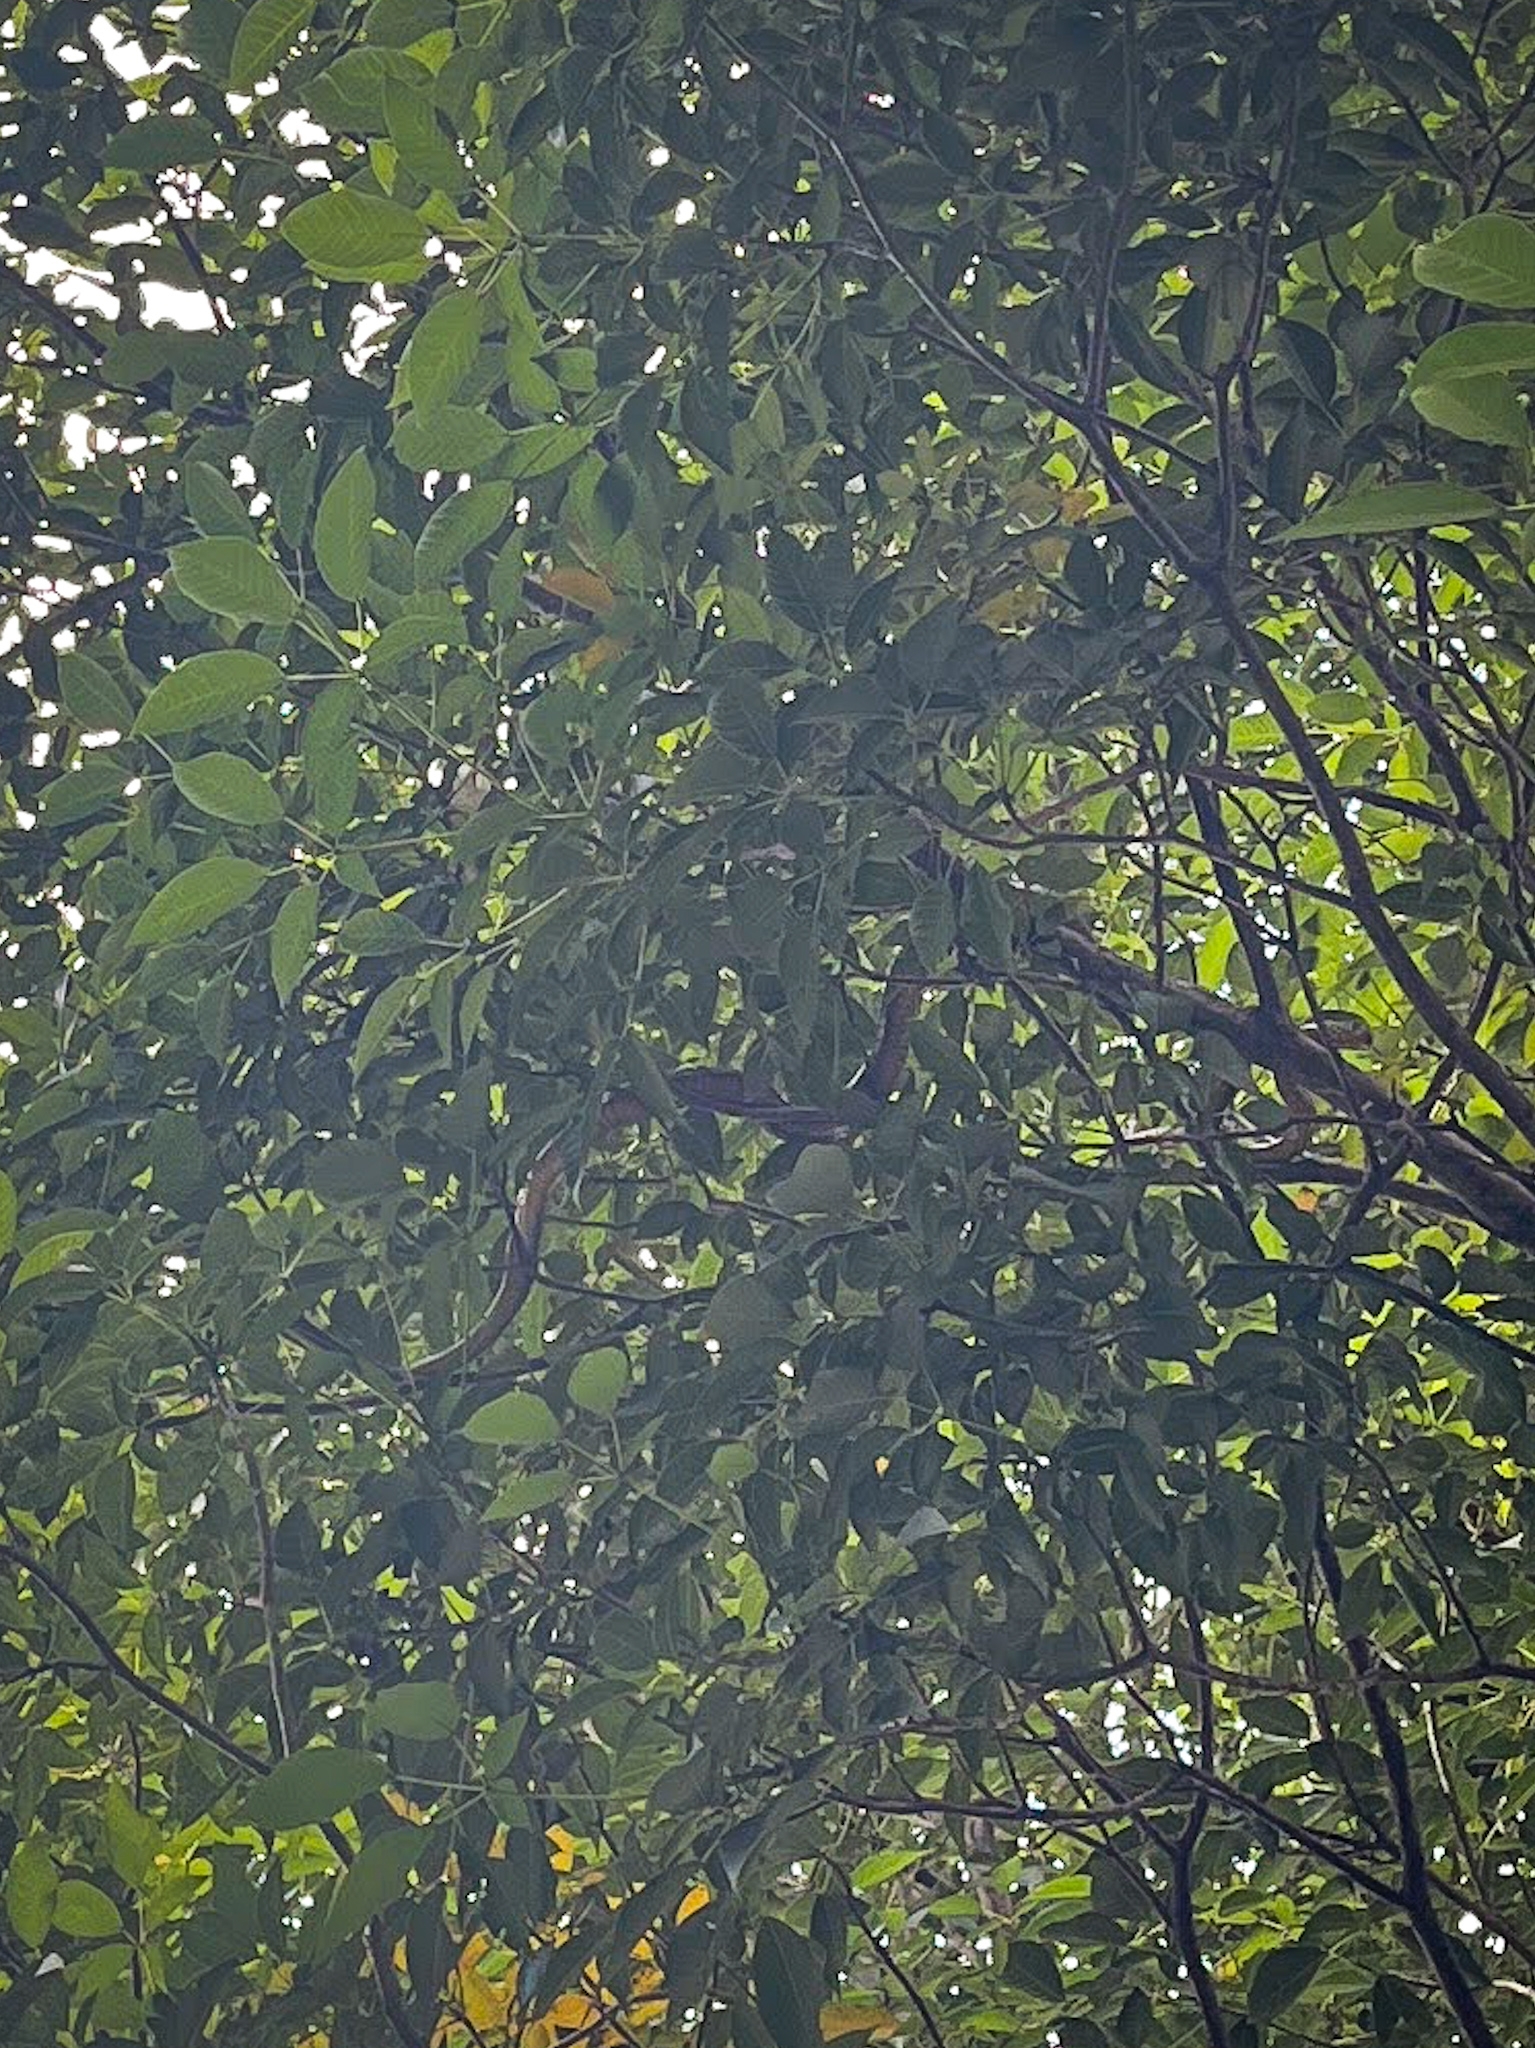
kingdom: Animalia
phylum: Chordata
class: Squamata
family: Colubridae
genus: Ptyas
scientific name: Ptyas mucosa
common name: Oriental ratsnake
